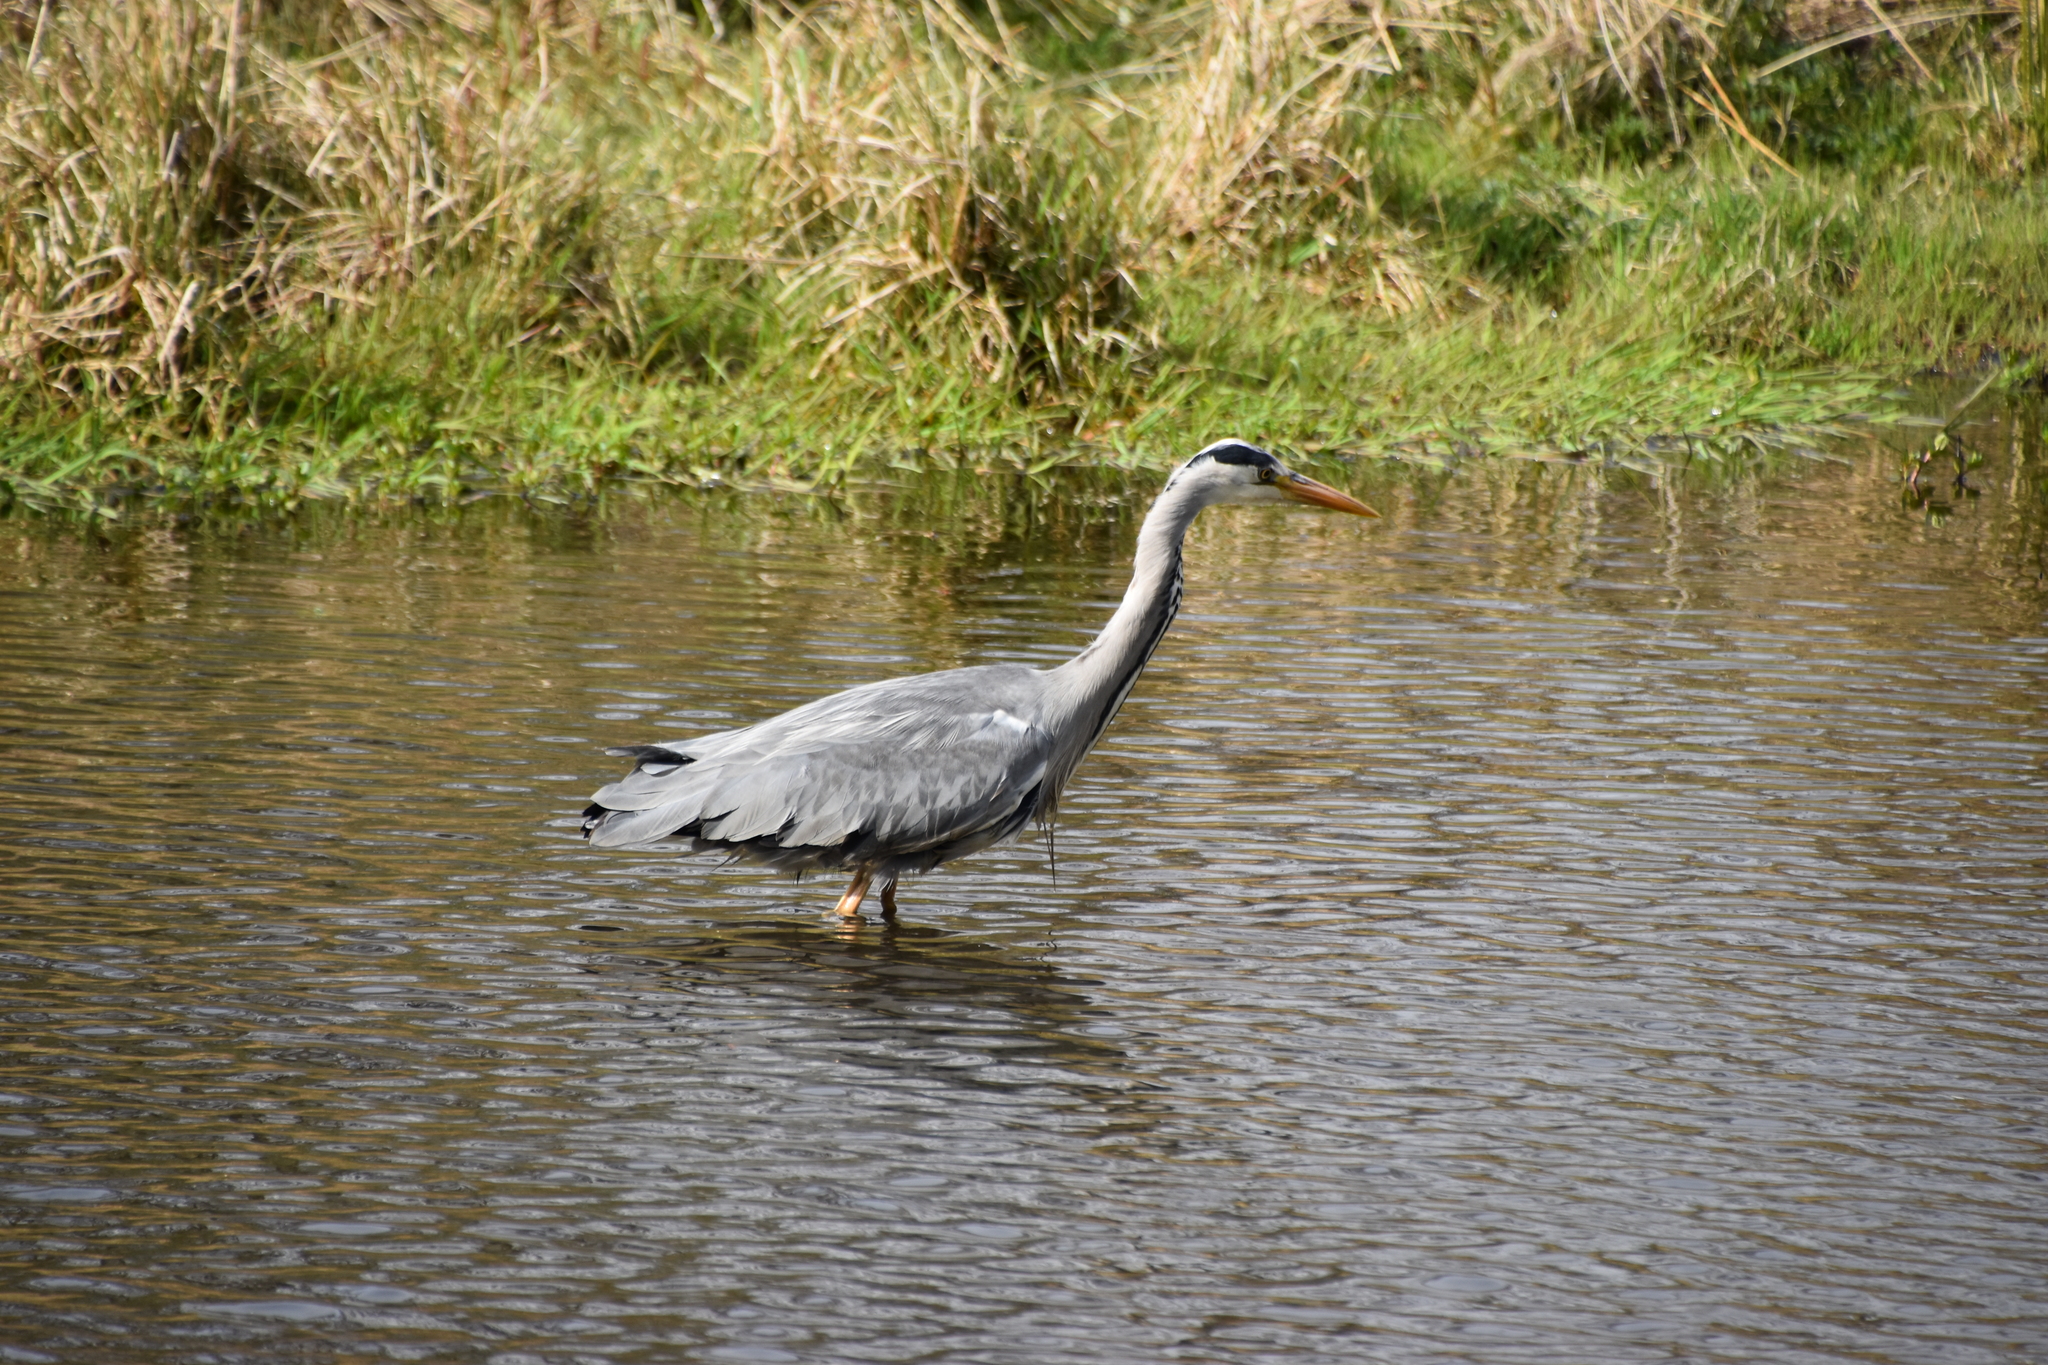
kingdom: Animalia
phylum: Chordata
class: Aves
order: Pelecaniformes
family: Ardeidae
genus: Ardea
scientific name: Ardea cinerea
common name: Grey heron
